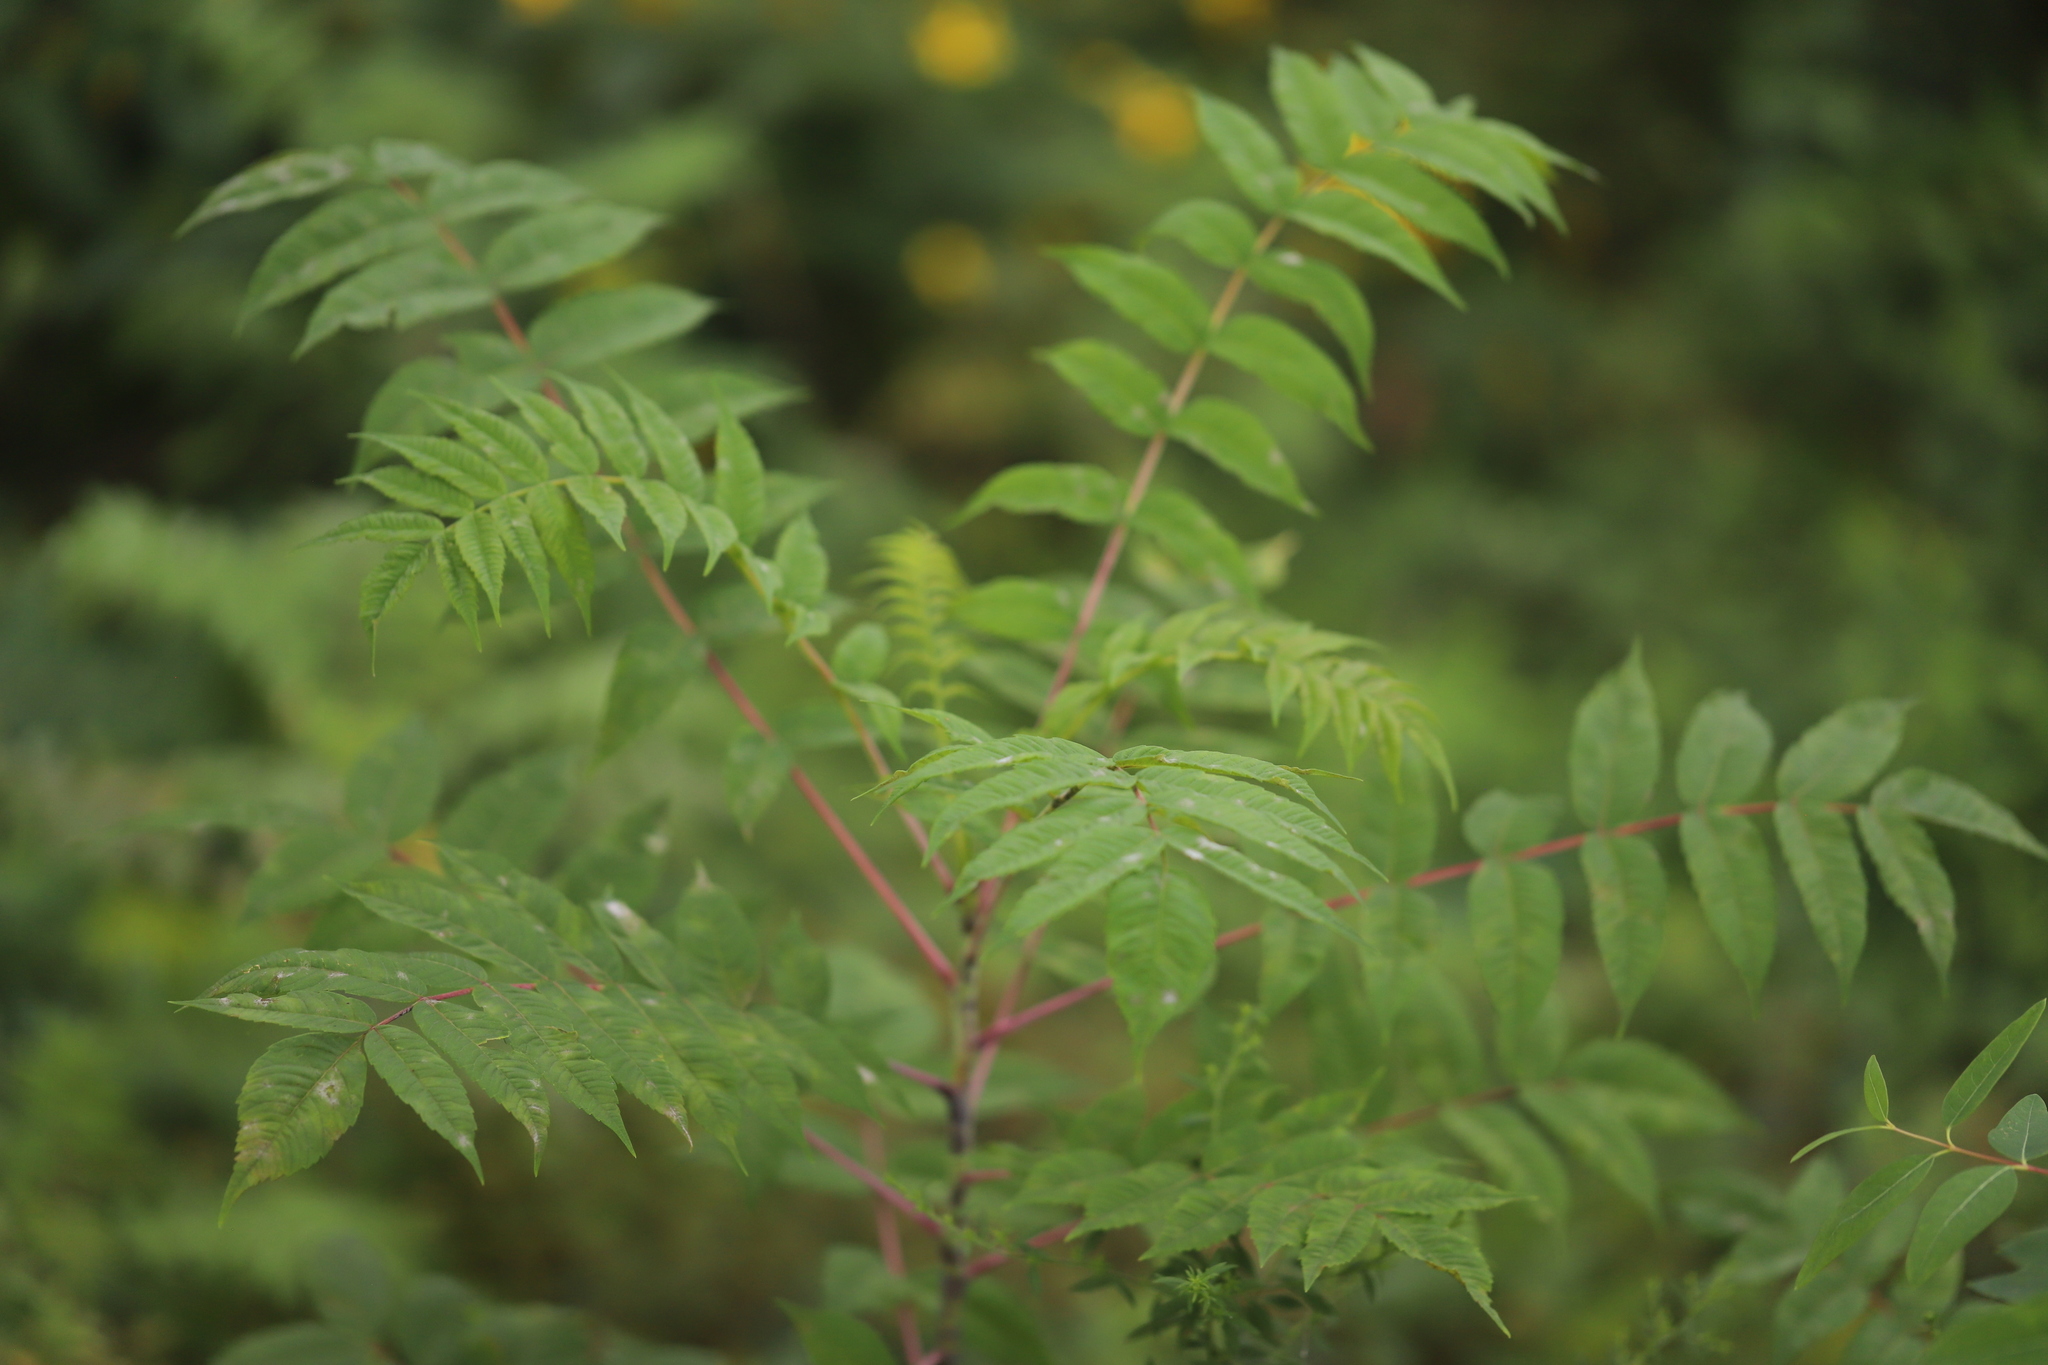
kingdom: Plantae
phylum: Tracheophyta
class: Magnoliopsida
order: Sapindales
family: Anacardiaceae
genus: Rhus
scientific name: Rhus glabra
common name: Scarlet sumac
